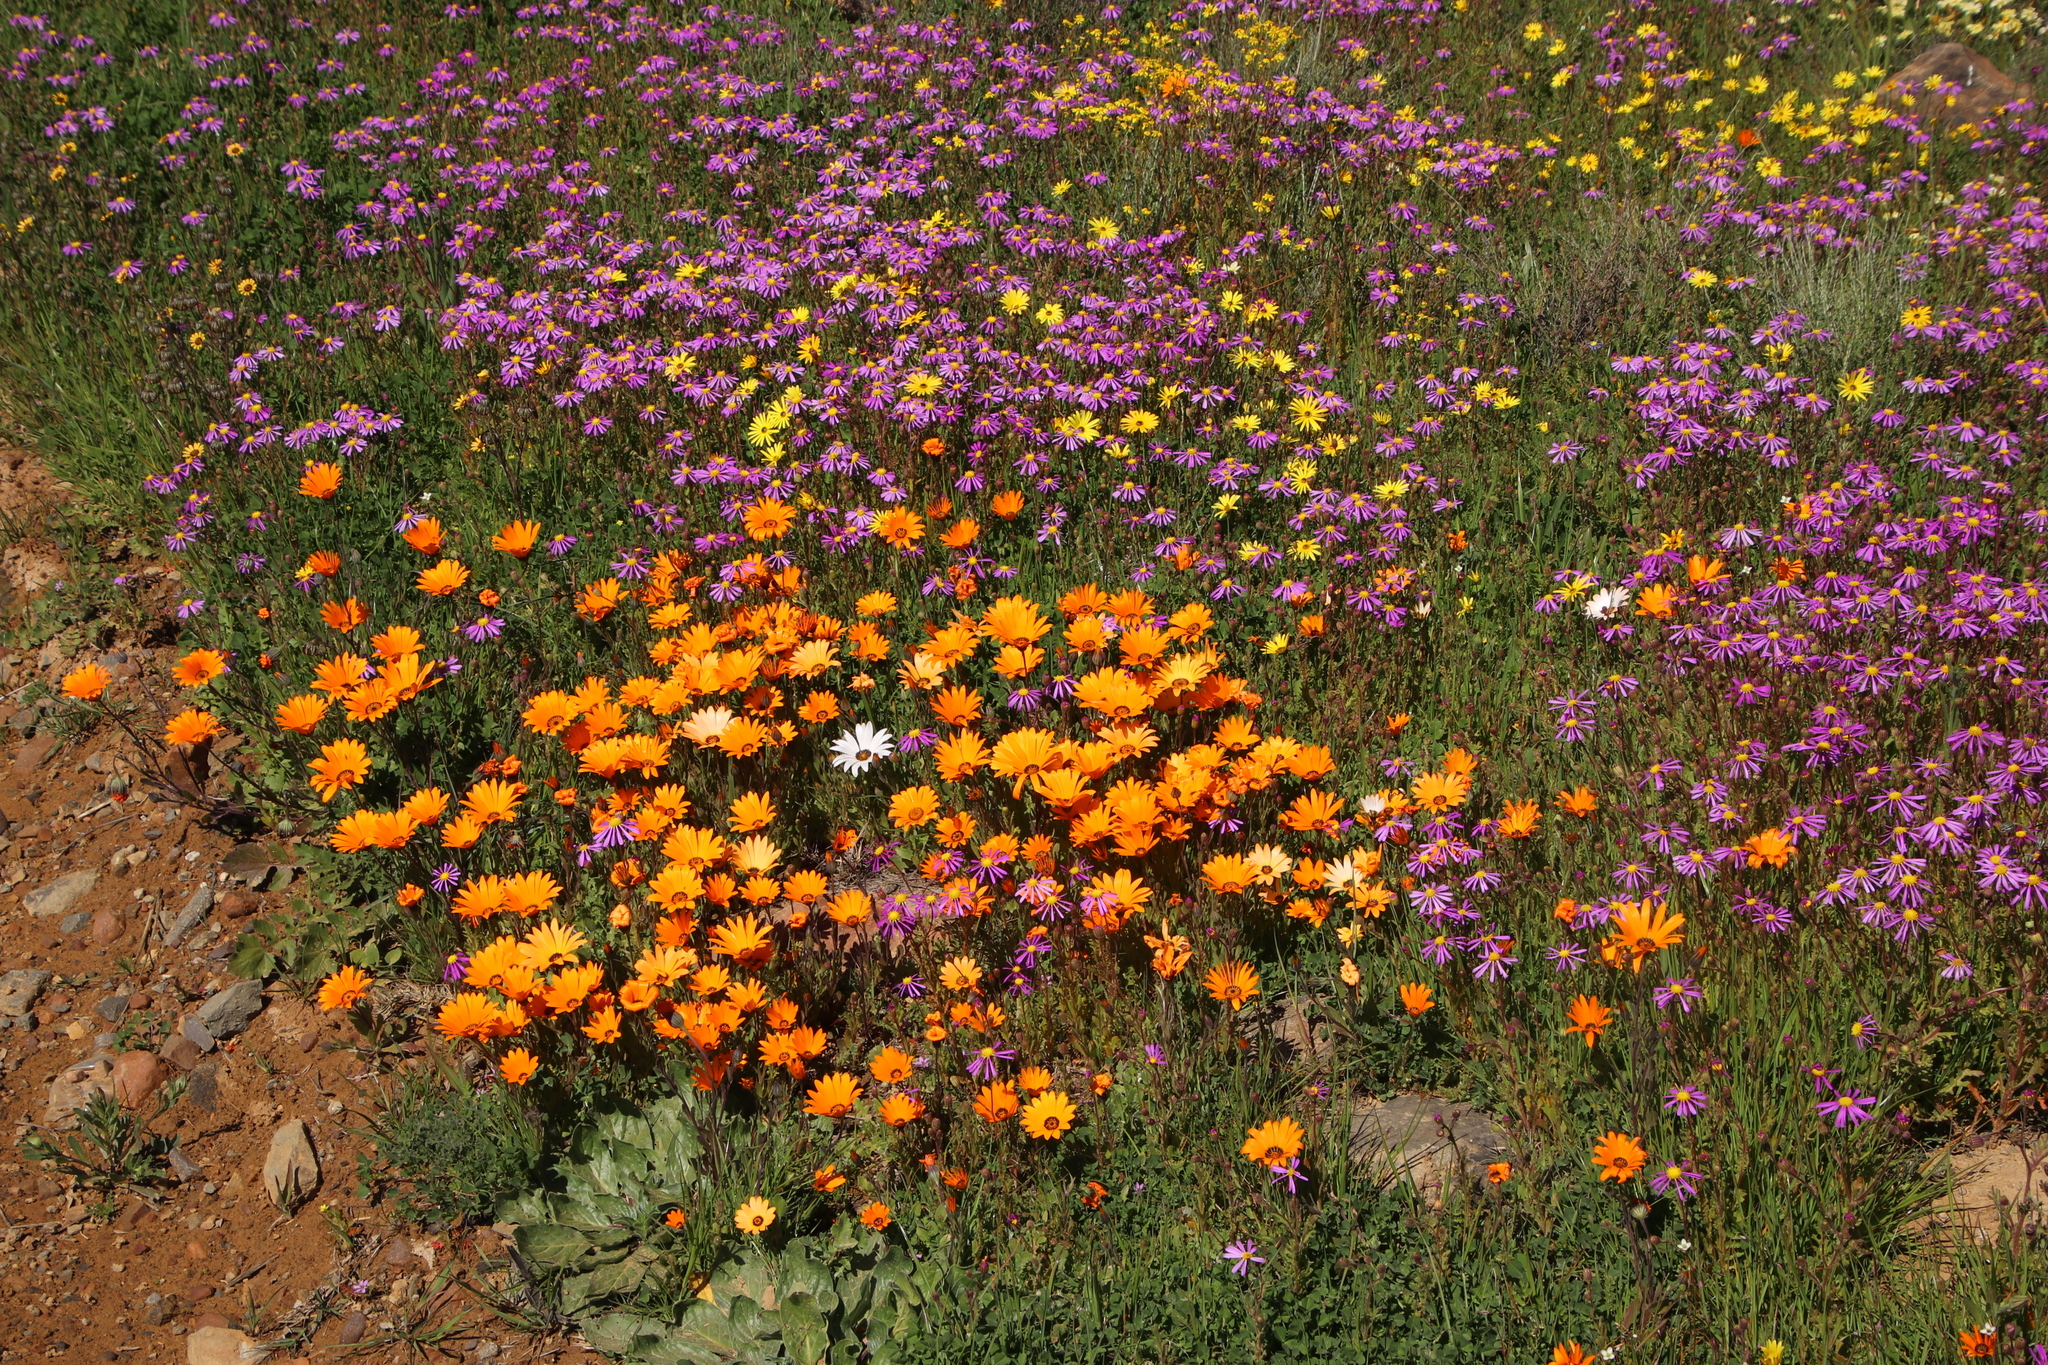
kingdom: Plantae
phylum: Tracheophyta
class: Magnoliopsida
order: Asterales
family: Asteraceae
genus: Dimorphotheca
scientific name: Dimorphotheca sinuata
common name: Glandular cape marigold
